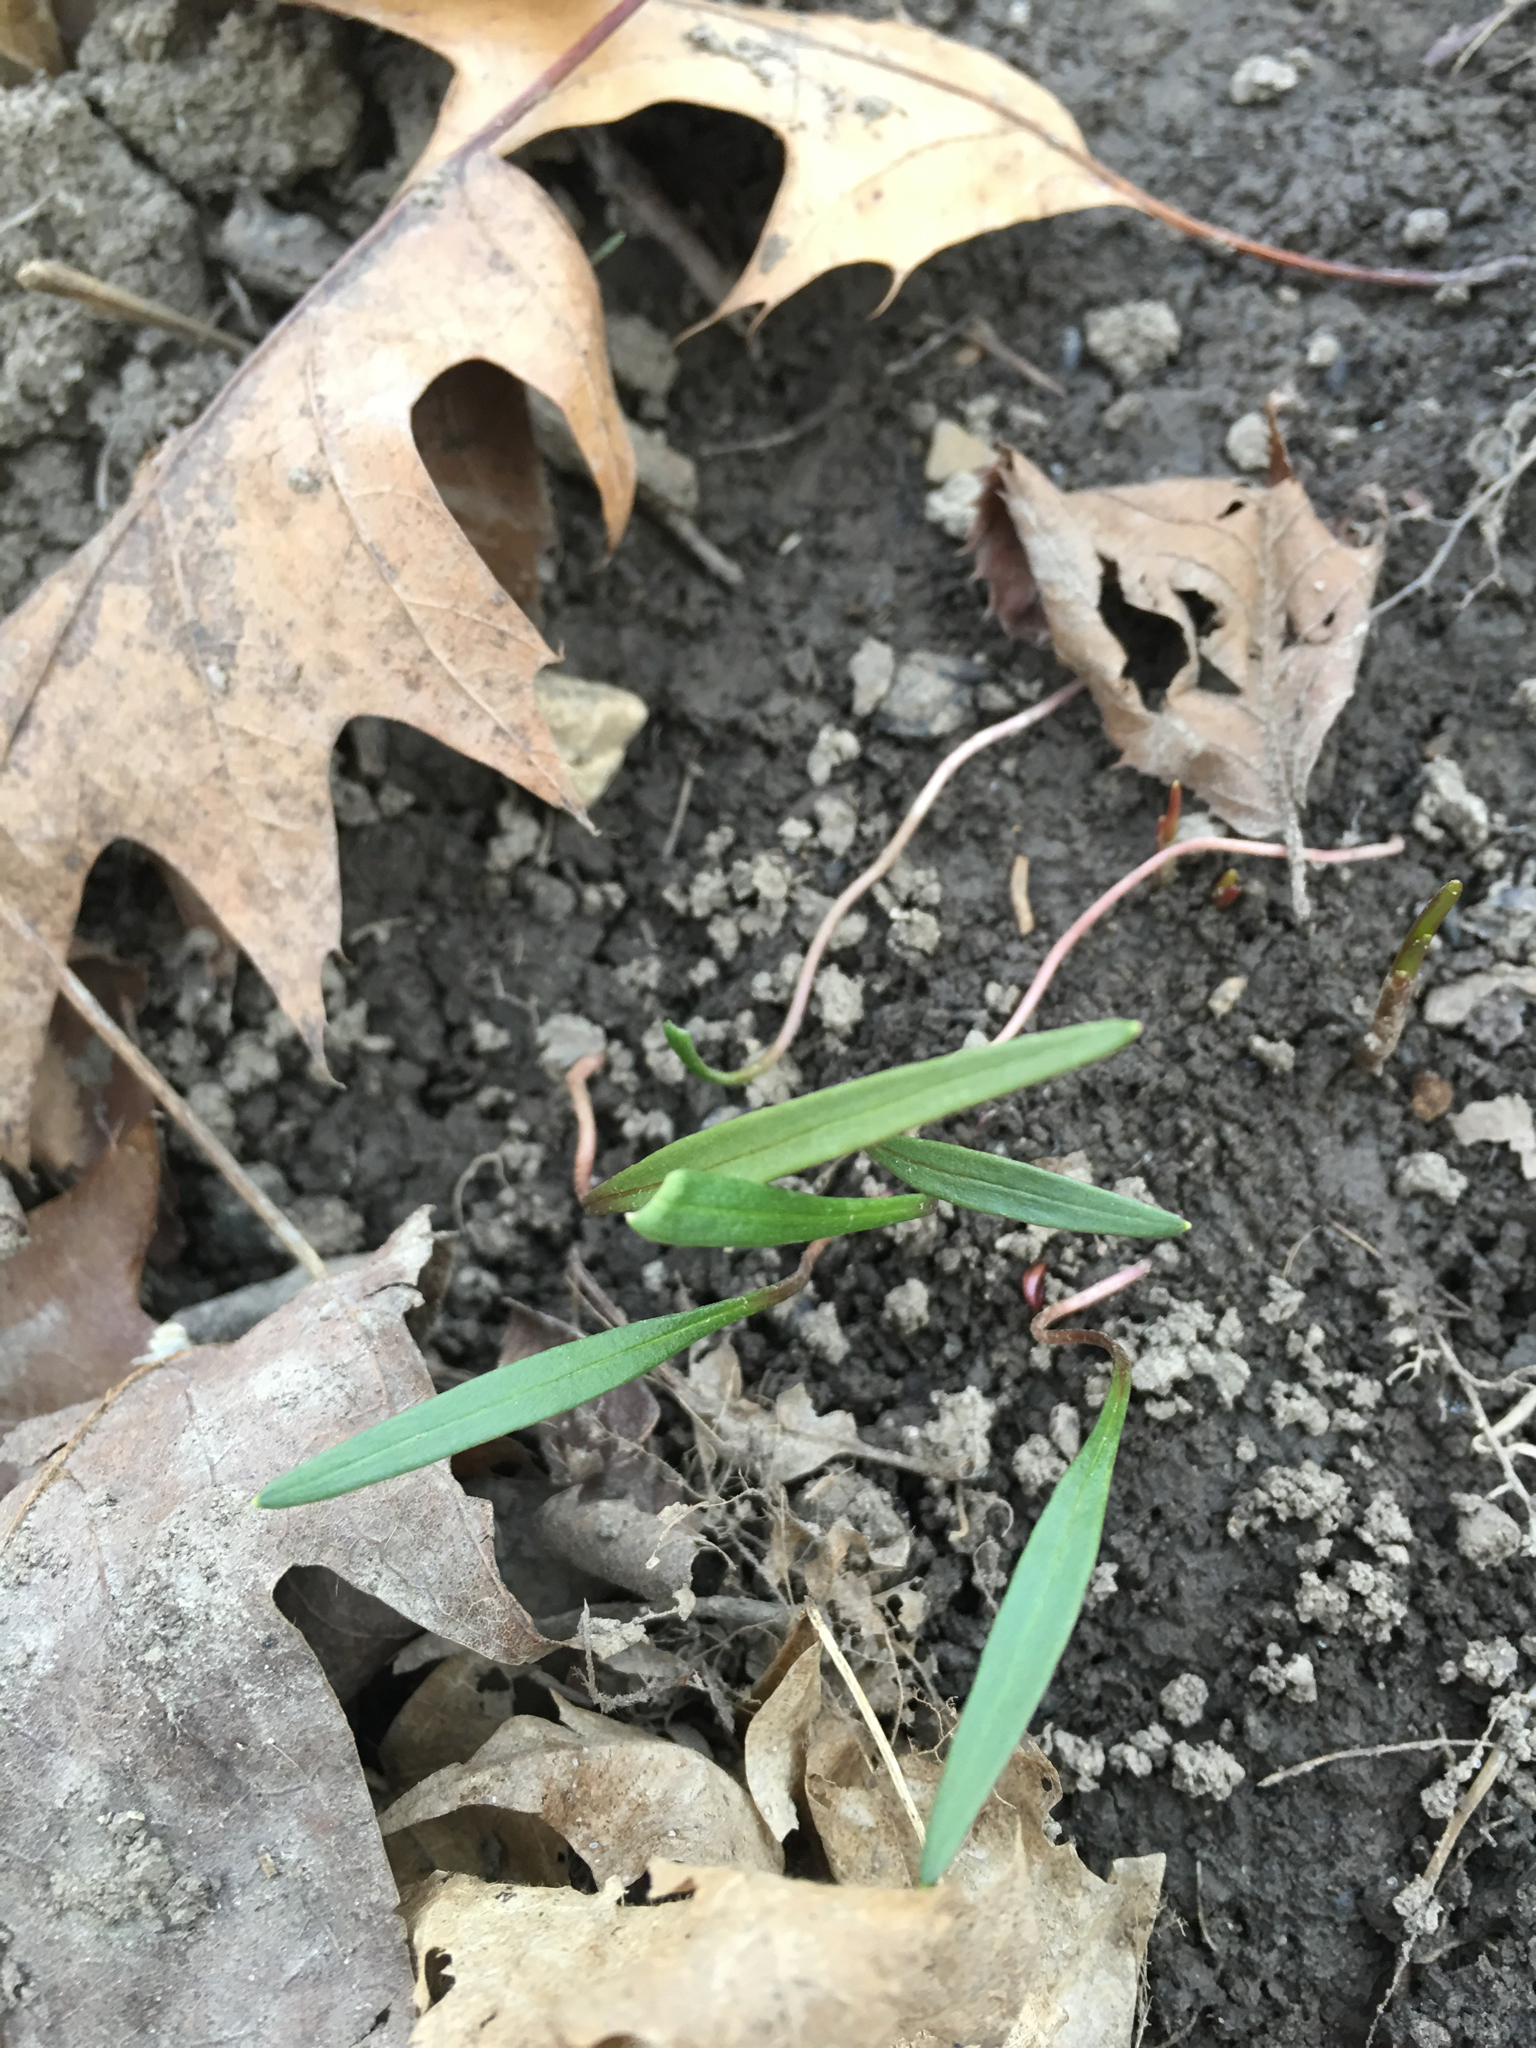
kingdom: Plantae
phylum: Tracheophyta
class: Magnoliopsida
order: Caryophyllales
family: Montiaceae
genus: Claytonia
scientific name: Claytonia virginica
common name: Virginia springbeauty
